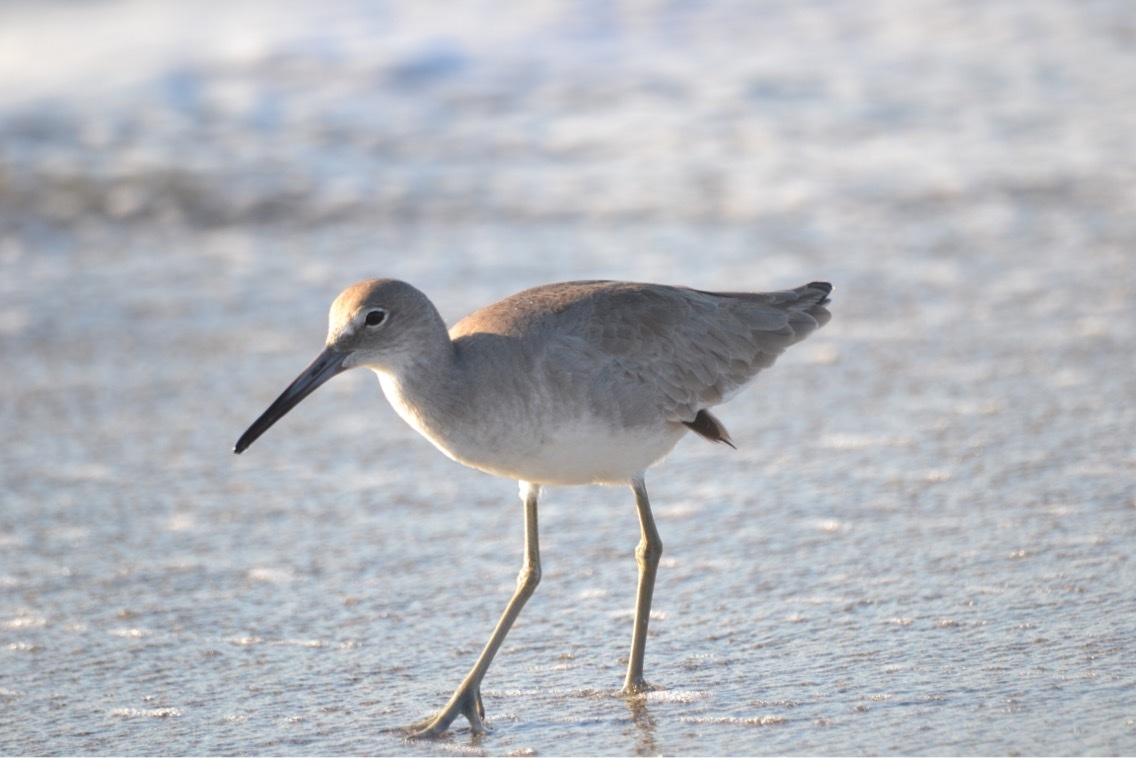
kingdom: Animalia
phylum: Chordata
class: Aves
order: Charadriiformes
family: Scolopacidae
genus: Tringa
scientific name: Tringa semipalmata
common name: Willet
